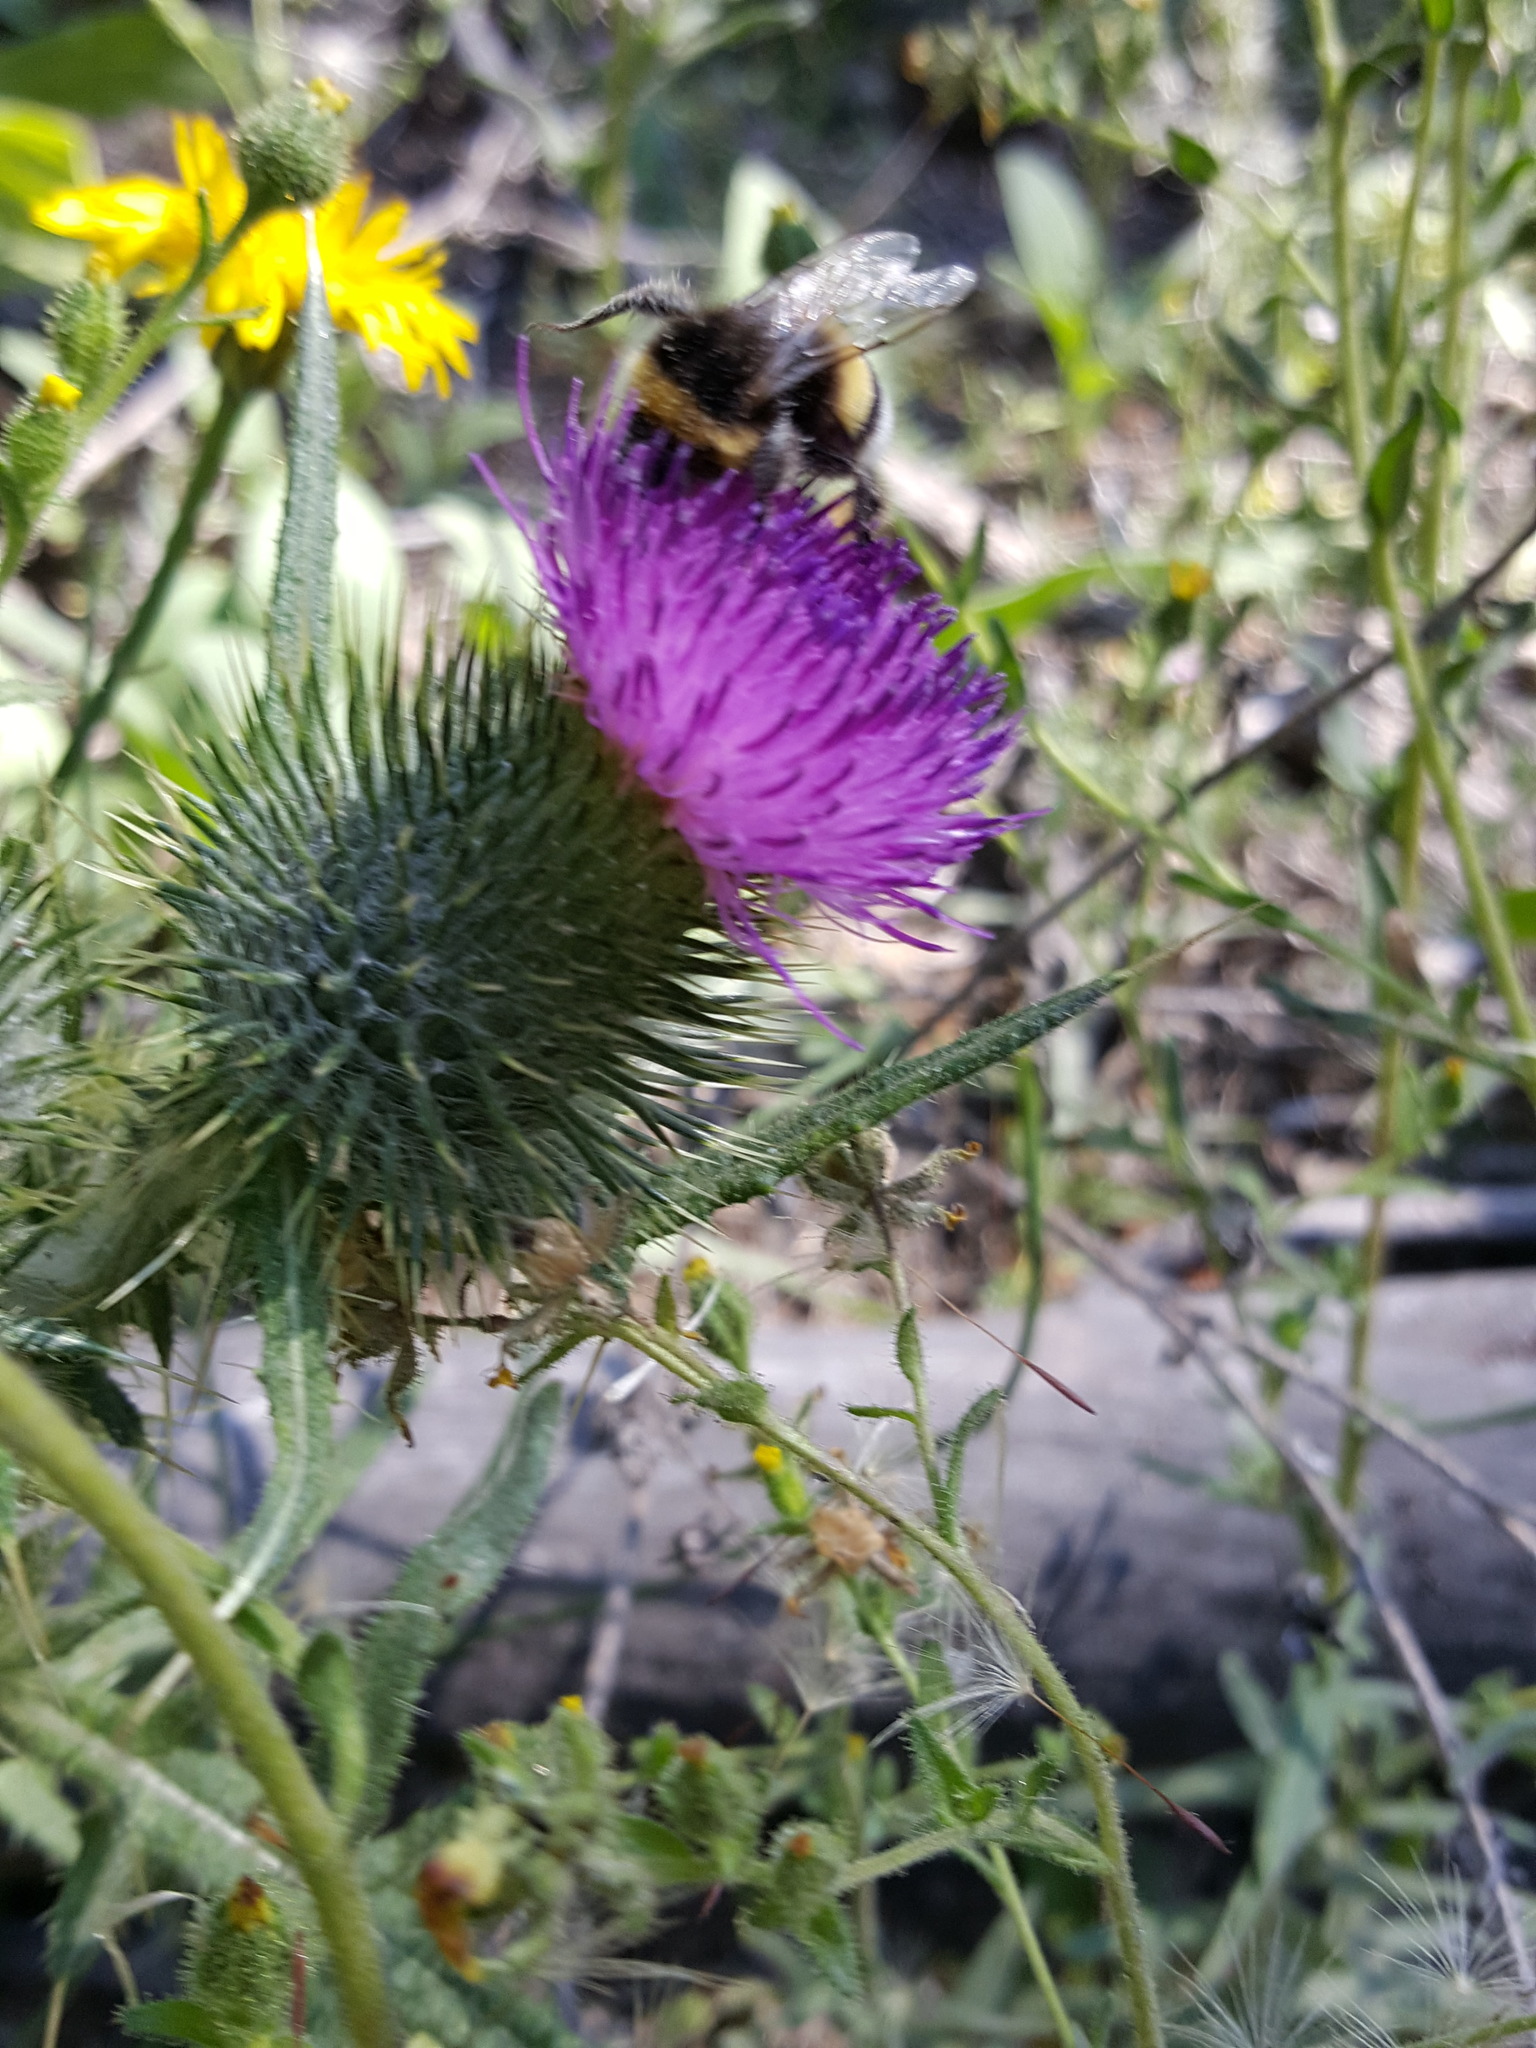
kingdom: Plantae
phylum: Tracheophyta
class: Magnoliopsida
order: Asterales
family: Asteraceae
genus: Cirsium
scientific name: Cirsium vulgare
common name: Bull thistle
